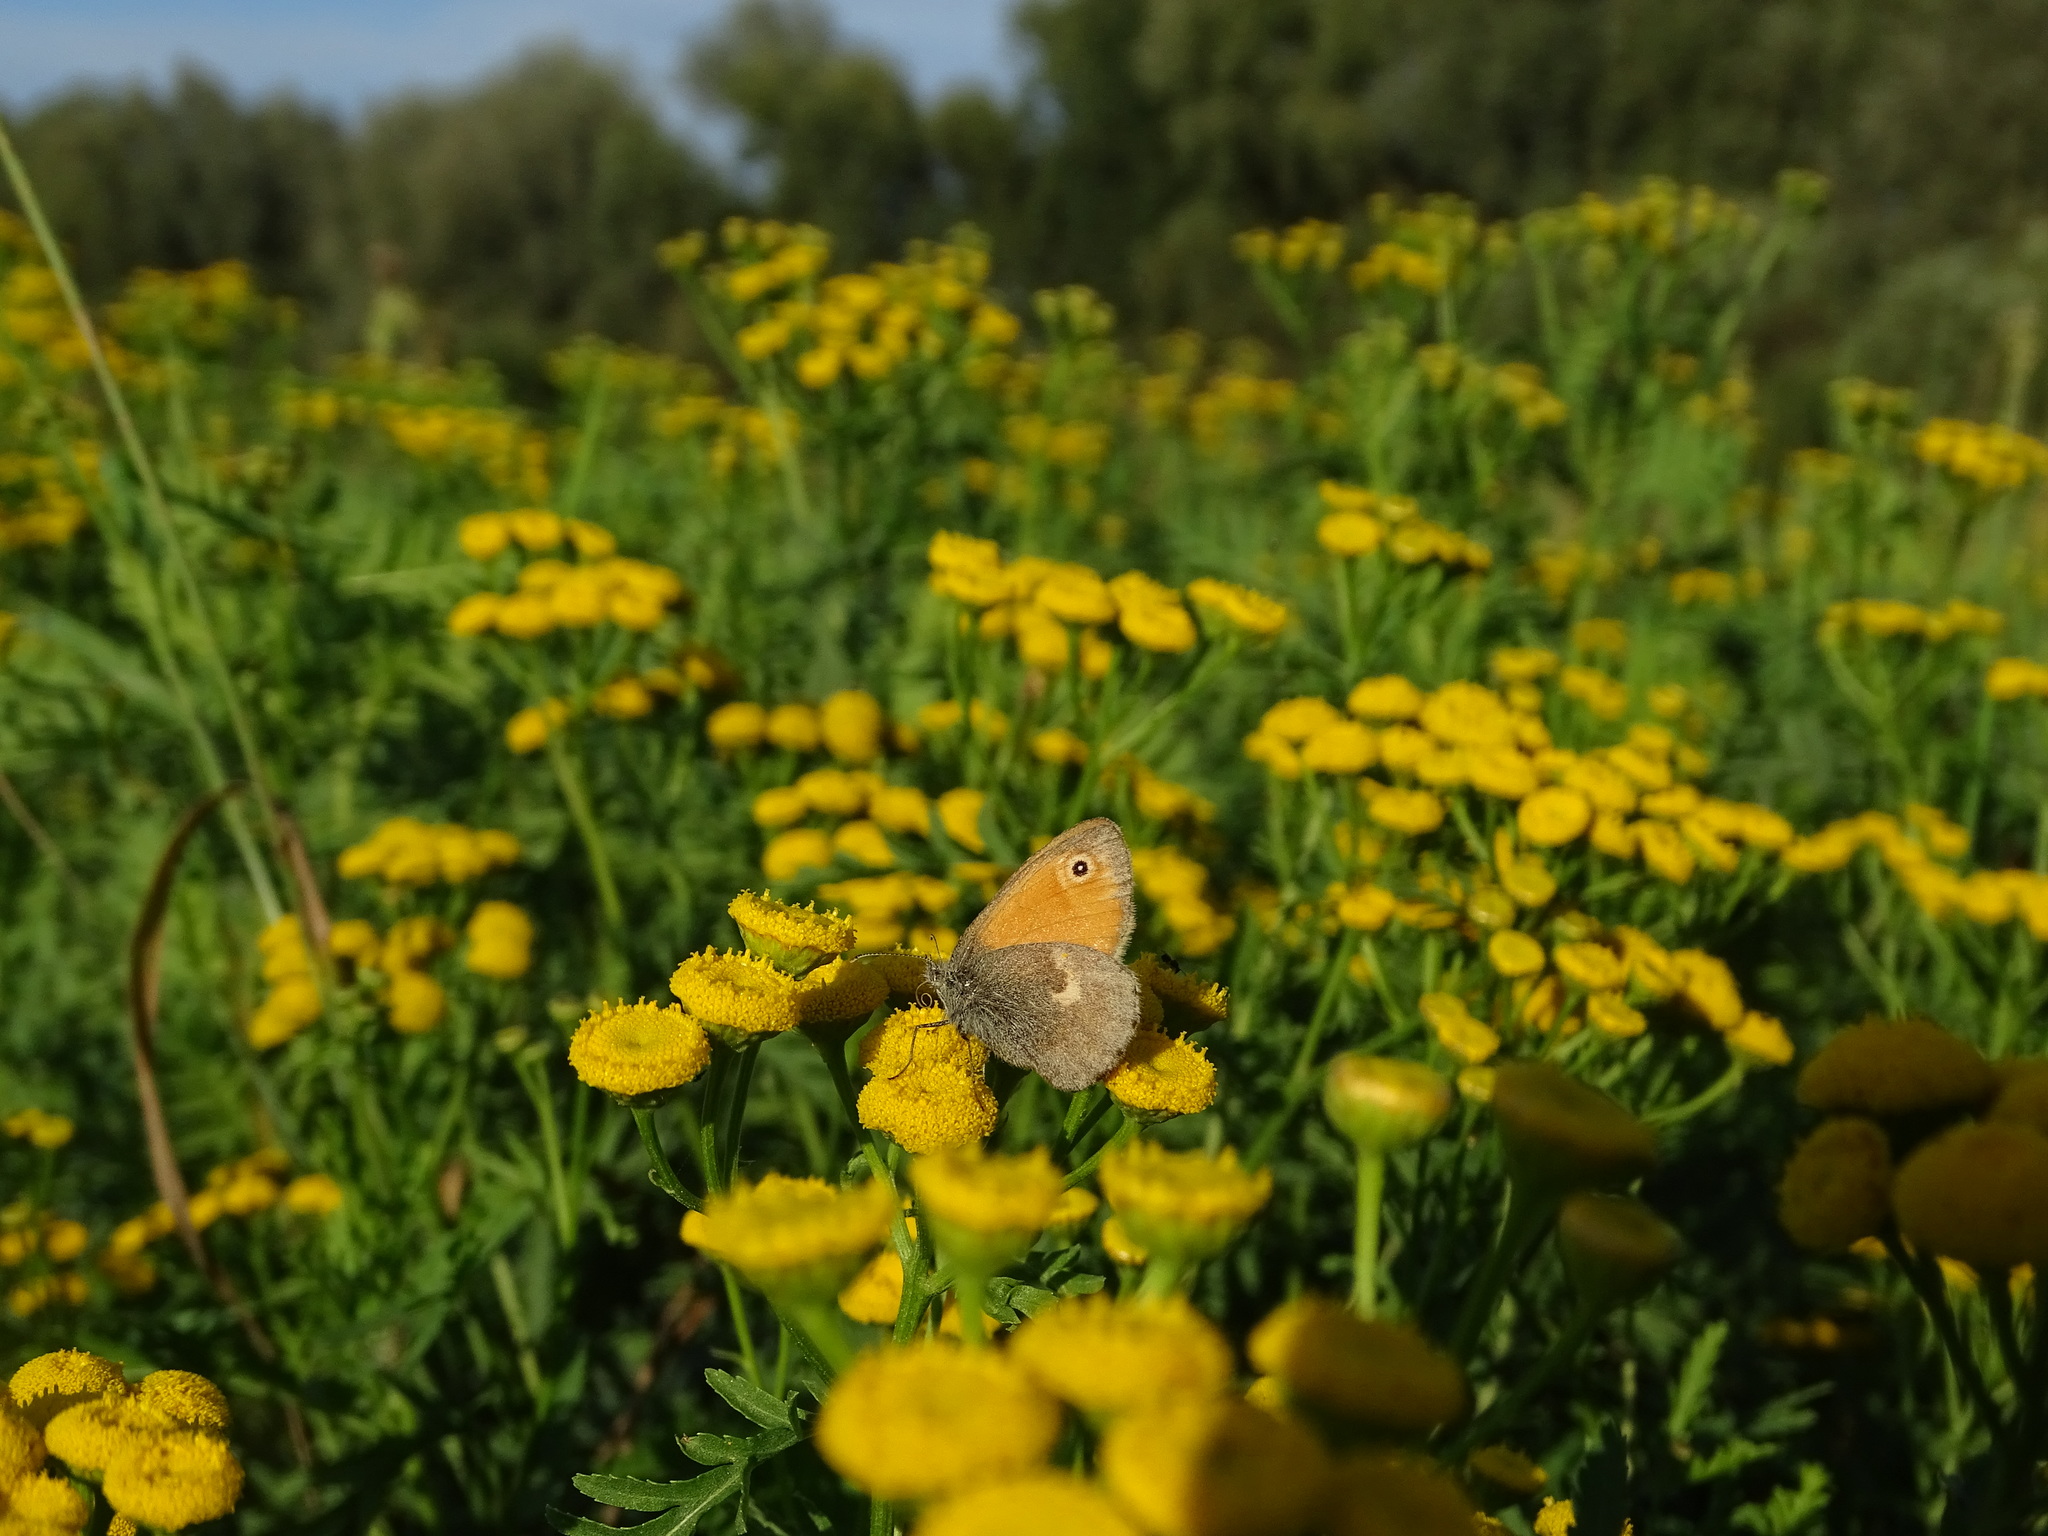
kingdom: Animalia
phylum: Arthropoda
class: Insecta
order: Lepidoptera
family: Nymphalidae
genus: Coenonympha
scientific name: Coenonympha pamphilus
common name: Small heath
